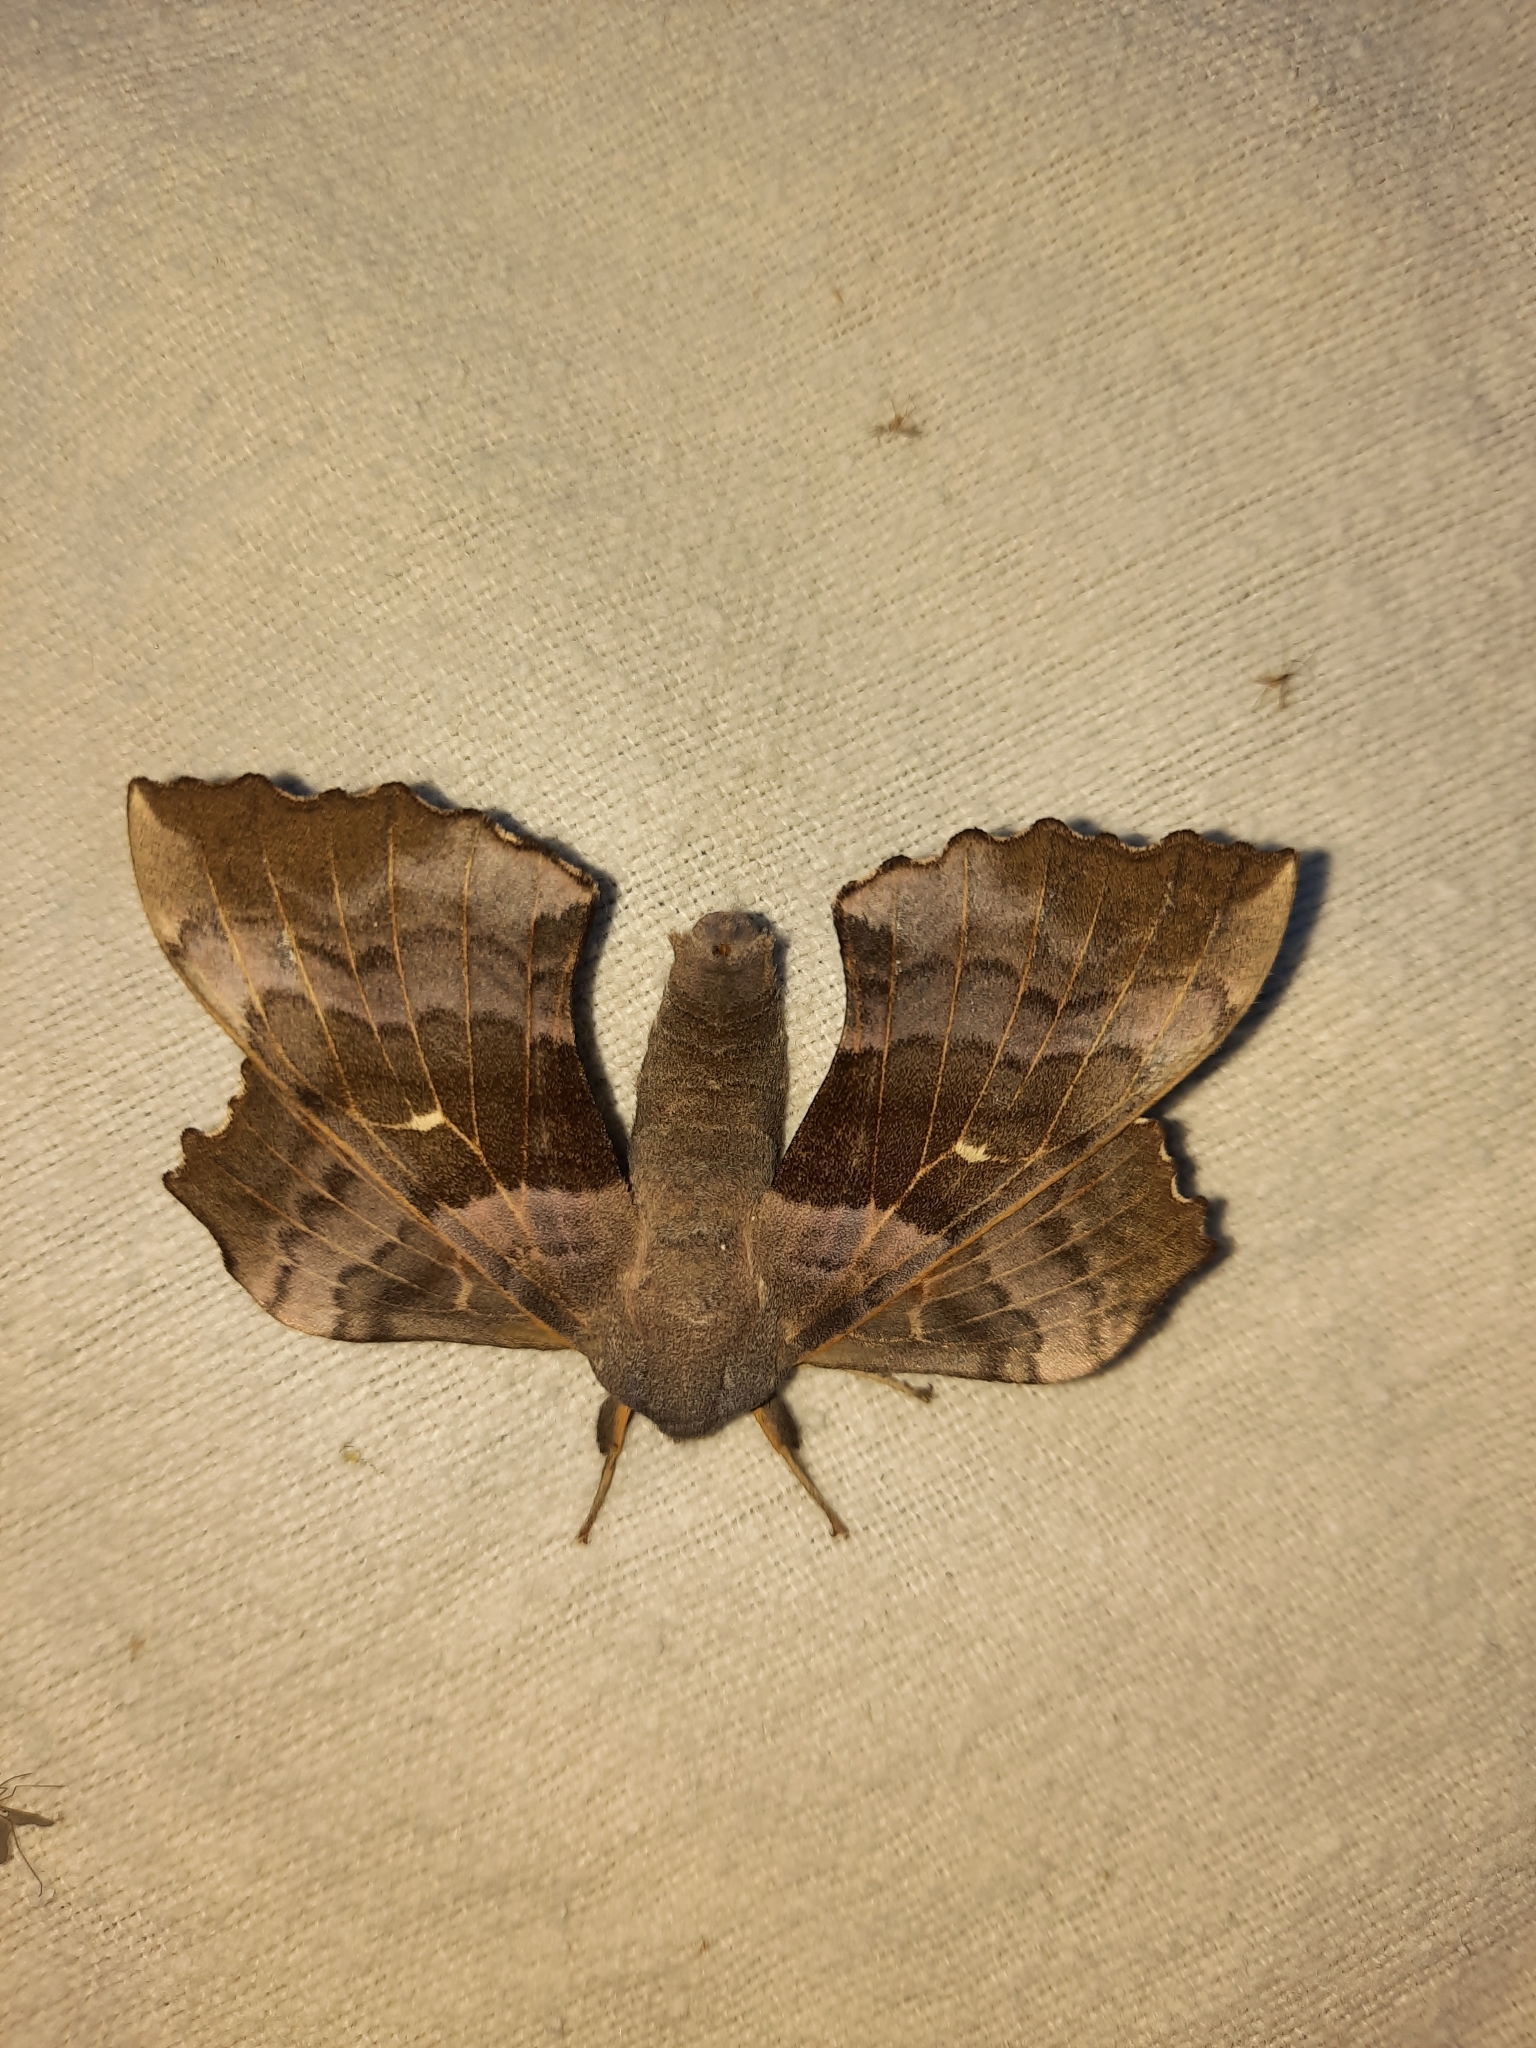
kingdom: Animalia
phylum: Arthropoda
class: Insecta
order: Lepidoptera
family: Sphingidae
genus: Laothoe
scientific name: Laothoe populi
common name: Poplar hawk-moth
